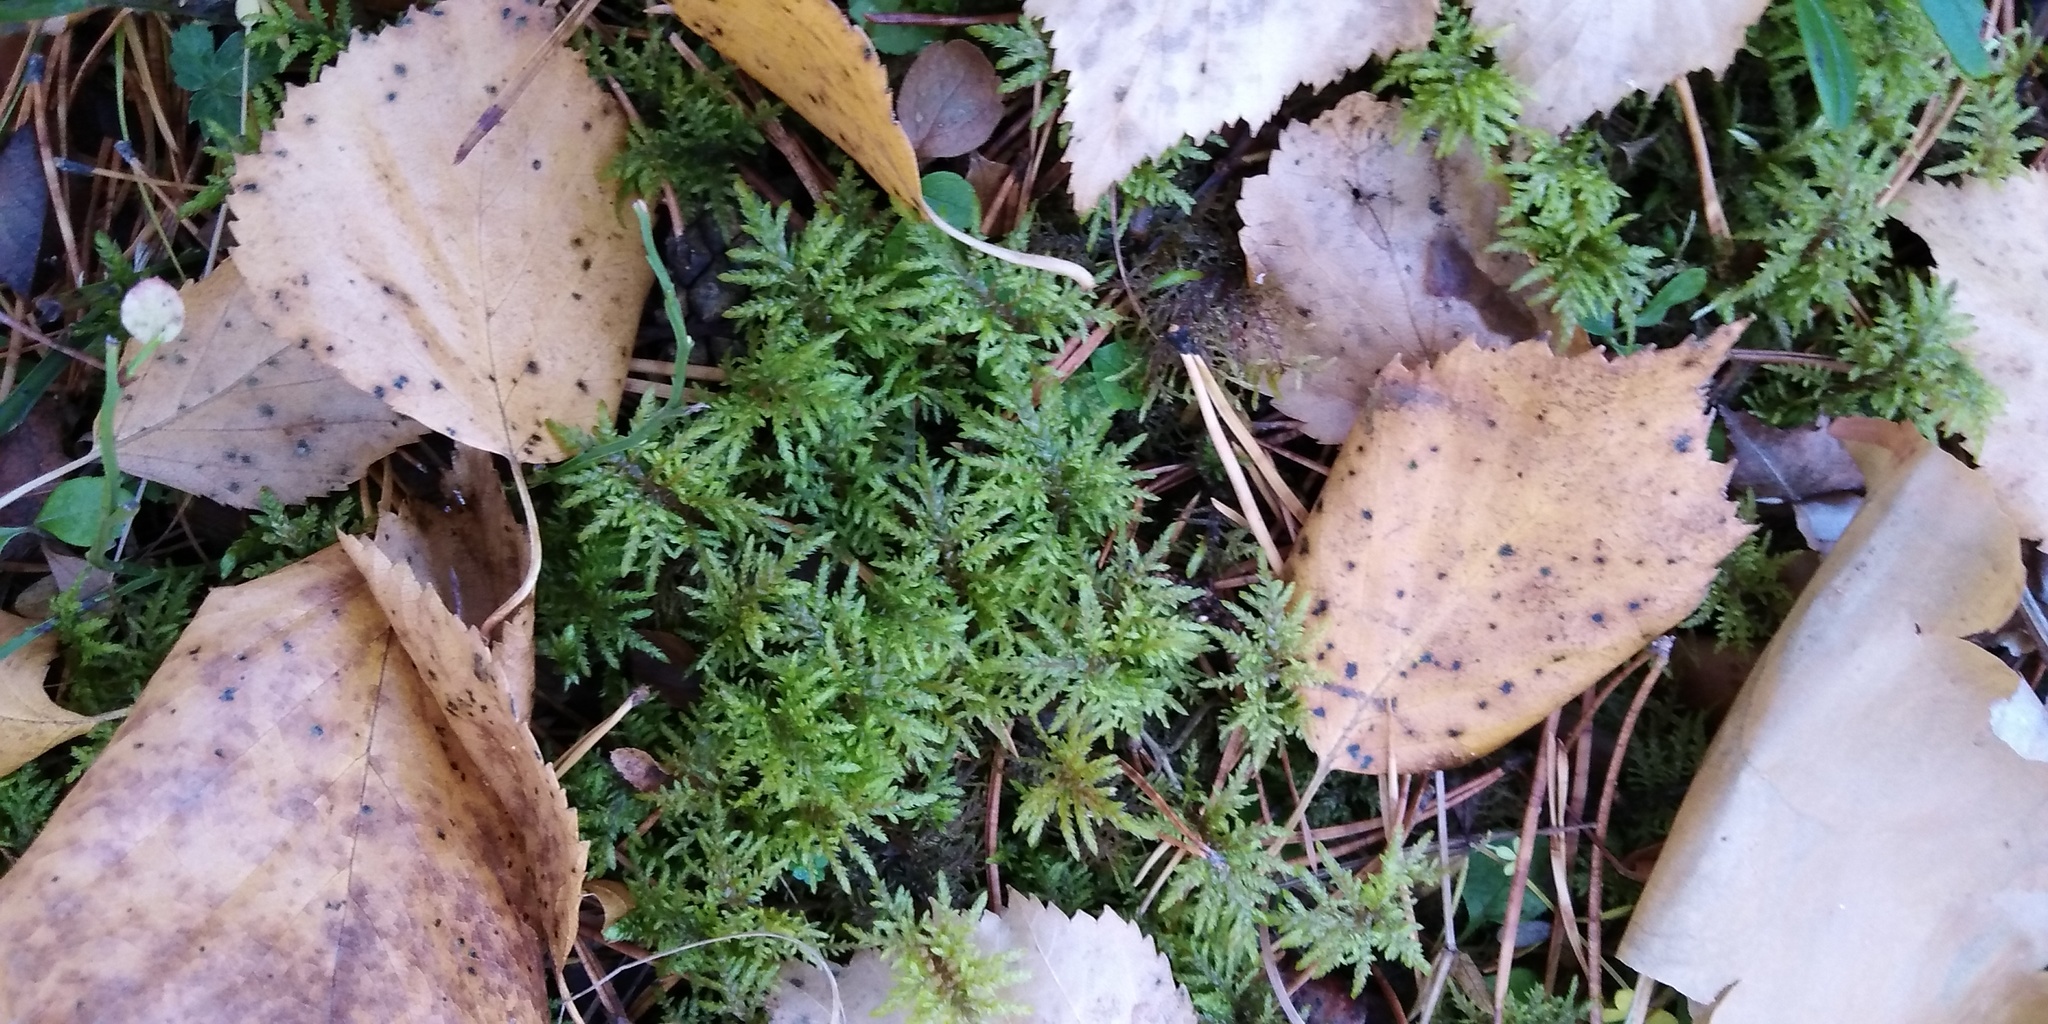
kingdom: Plantae
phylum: Bryophyta
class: Bryopsida
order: Hypnales
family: Hylocomiaceae
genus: Hylocomium
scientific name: Hylocomium splendens
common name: Stairstep moss
